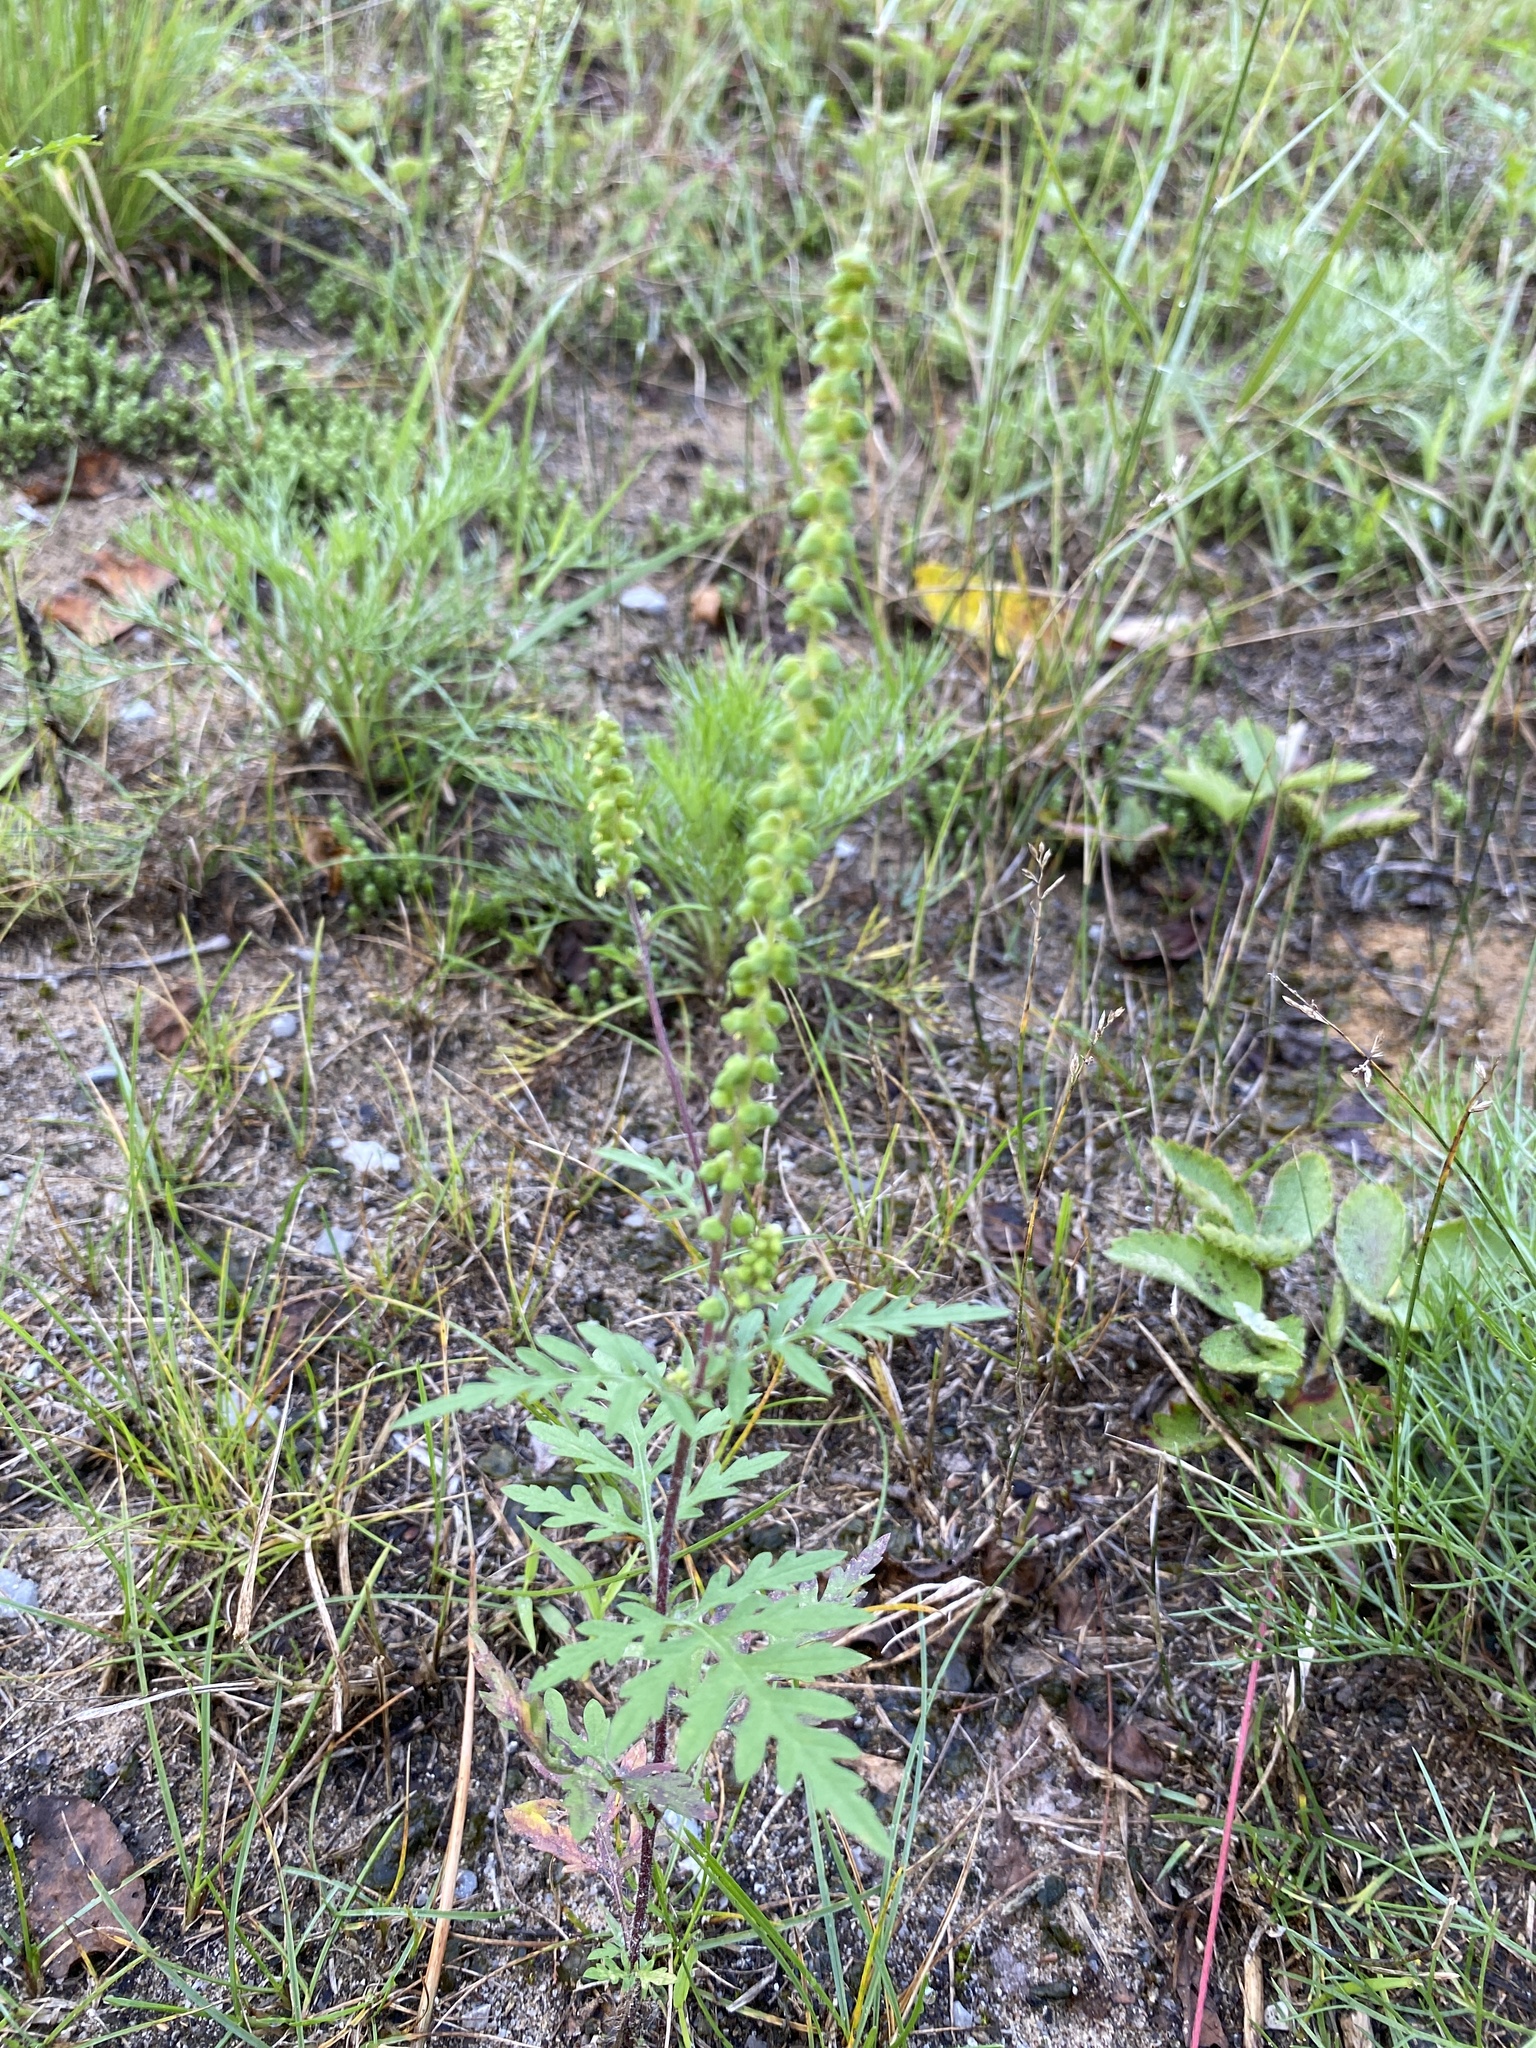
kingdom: Plantae
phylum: Tracheophyta
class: Magnoliopsida
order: Asterales
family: Asteraceae
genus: Ambrosia
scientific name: Ambrosia artemisiifolia
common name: Annual ragweed
